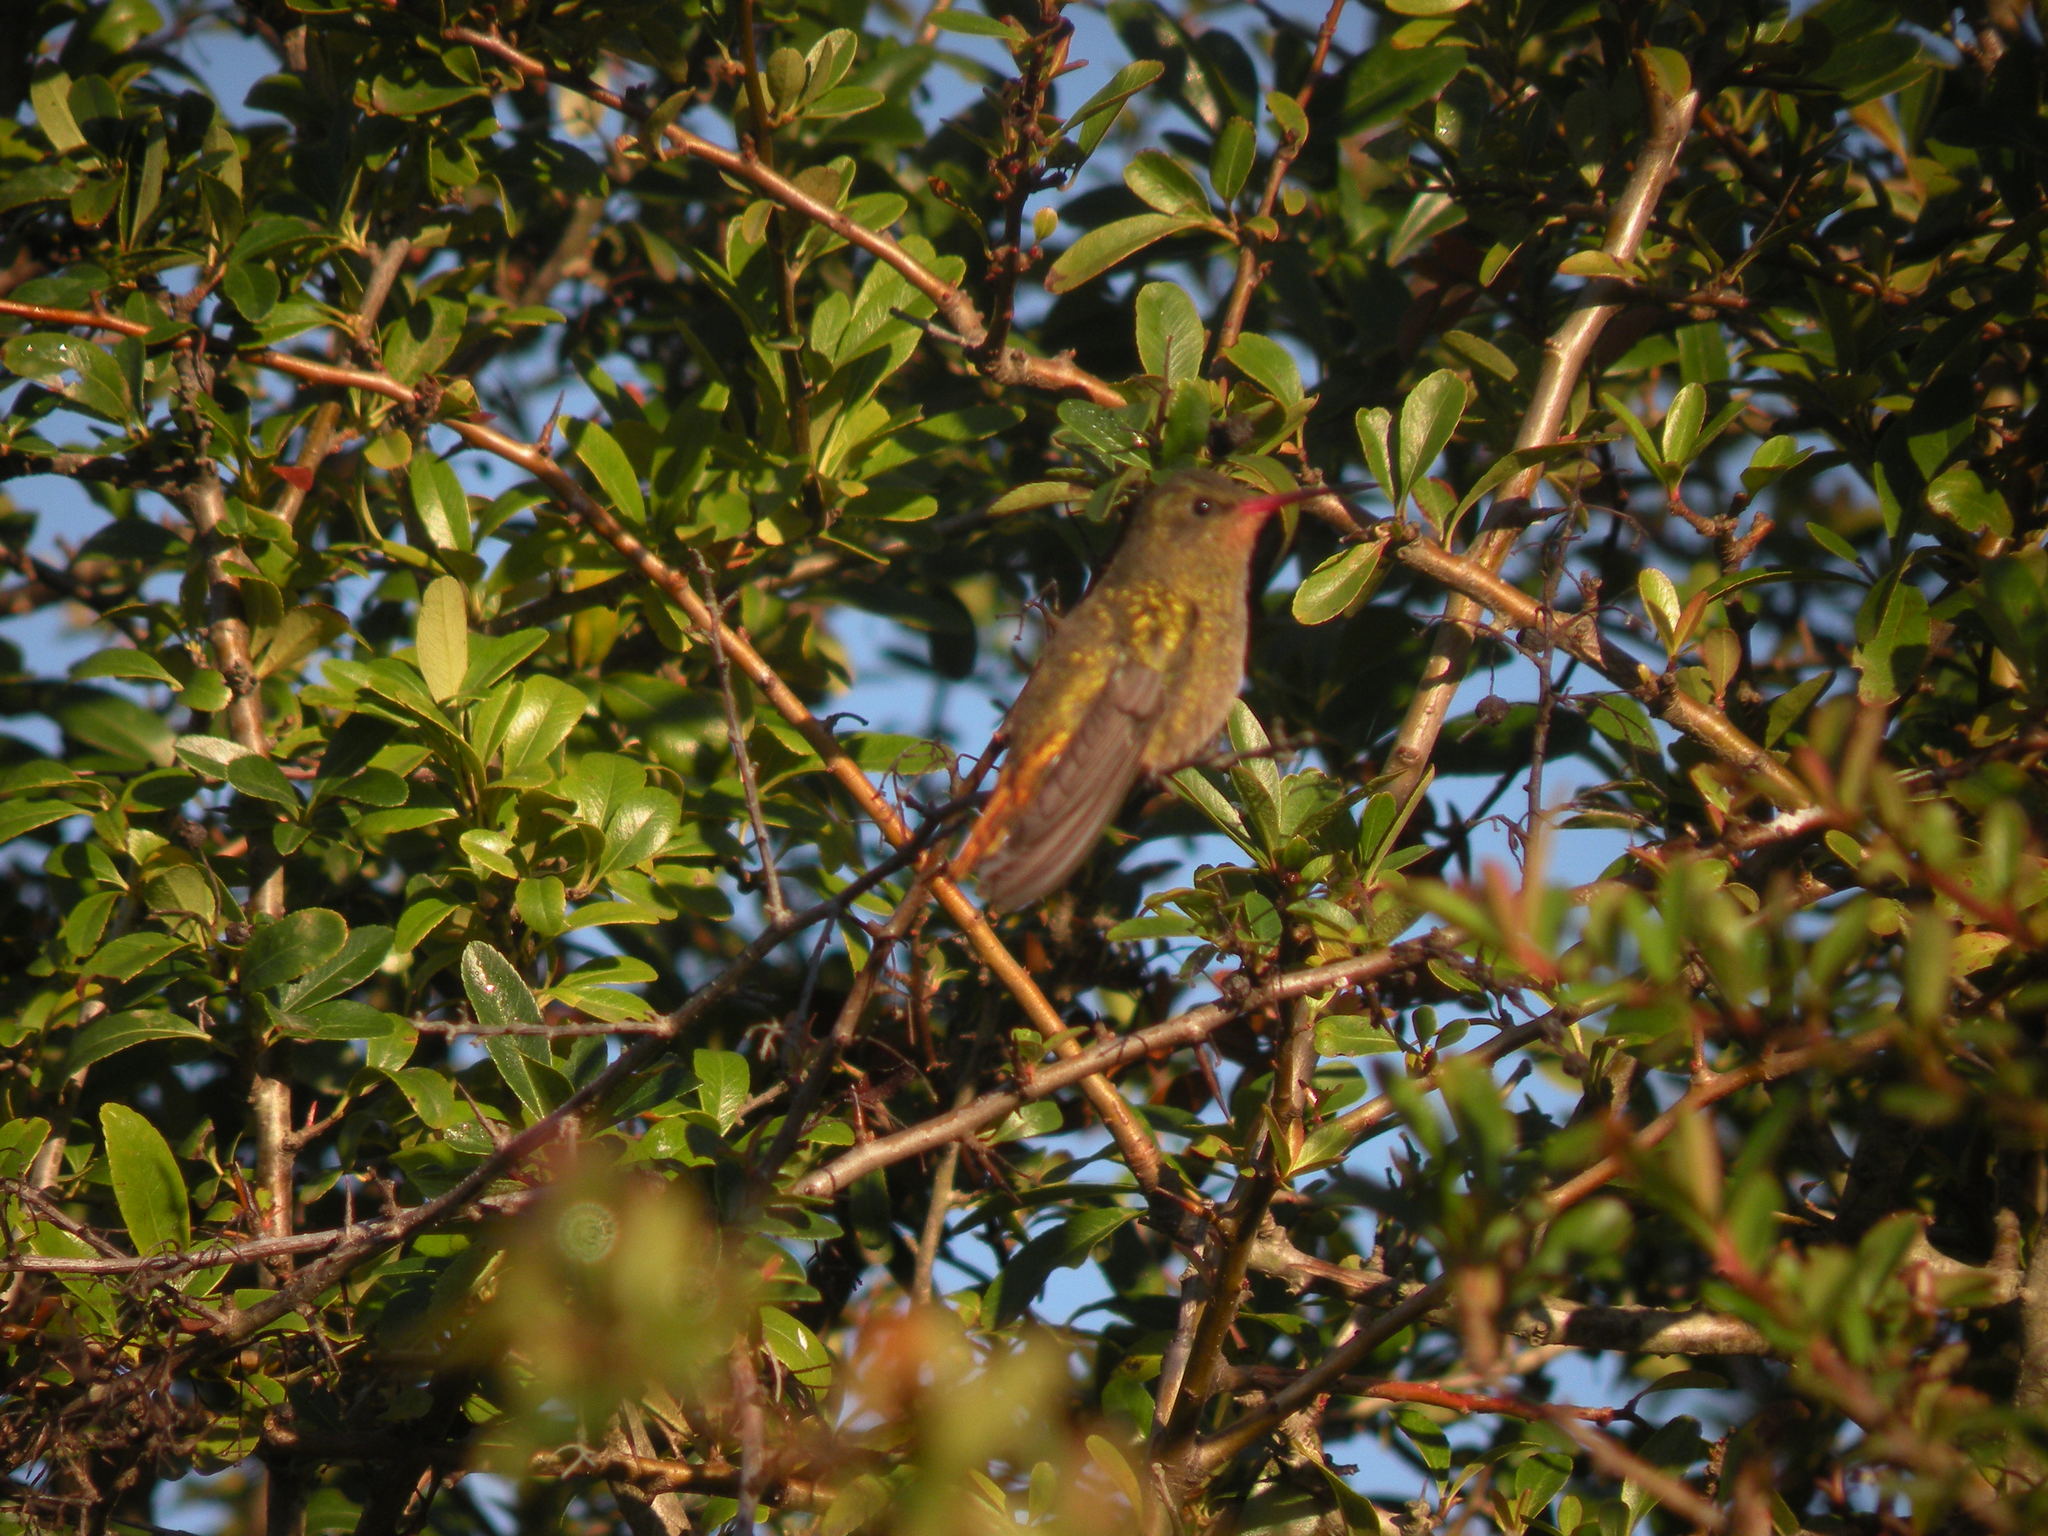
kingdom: Animalia
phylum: Chordata
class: Aves
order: Apodiformes
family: Trochilidae
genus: Hylocharis
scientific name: Hylocharis chrysura
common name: Gilded sapphire
